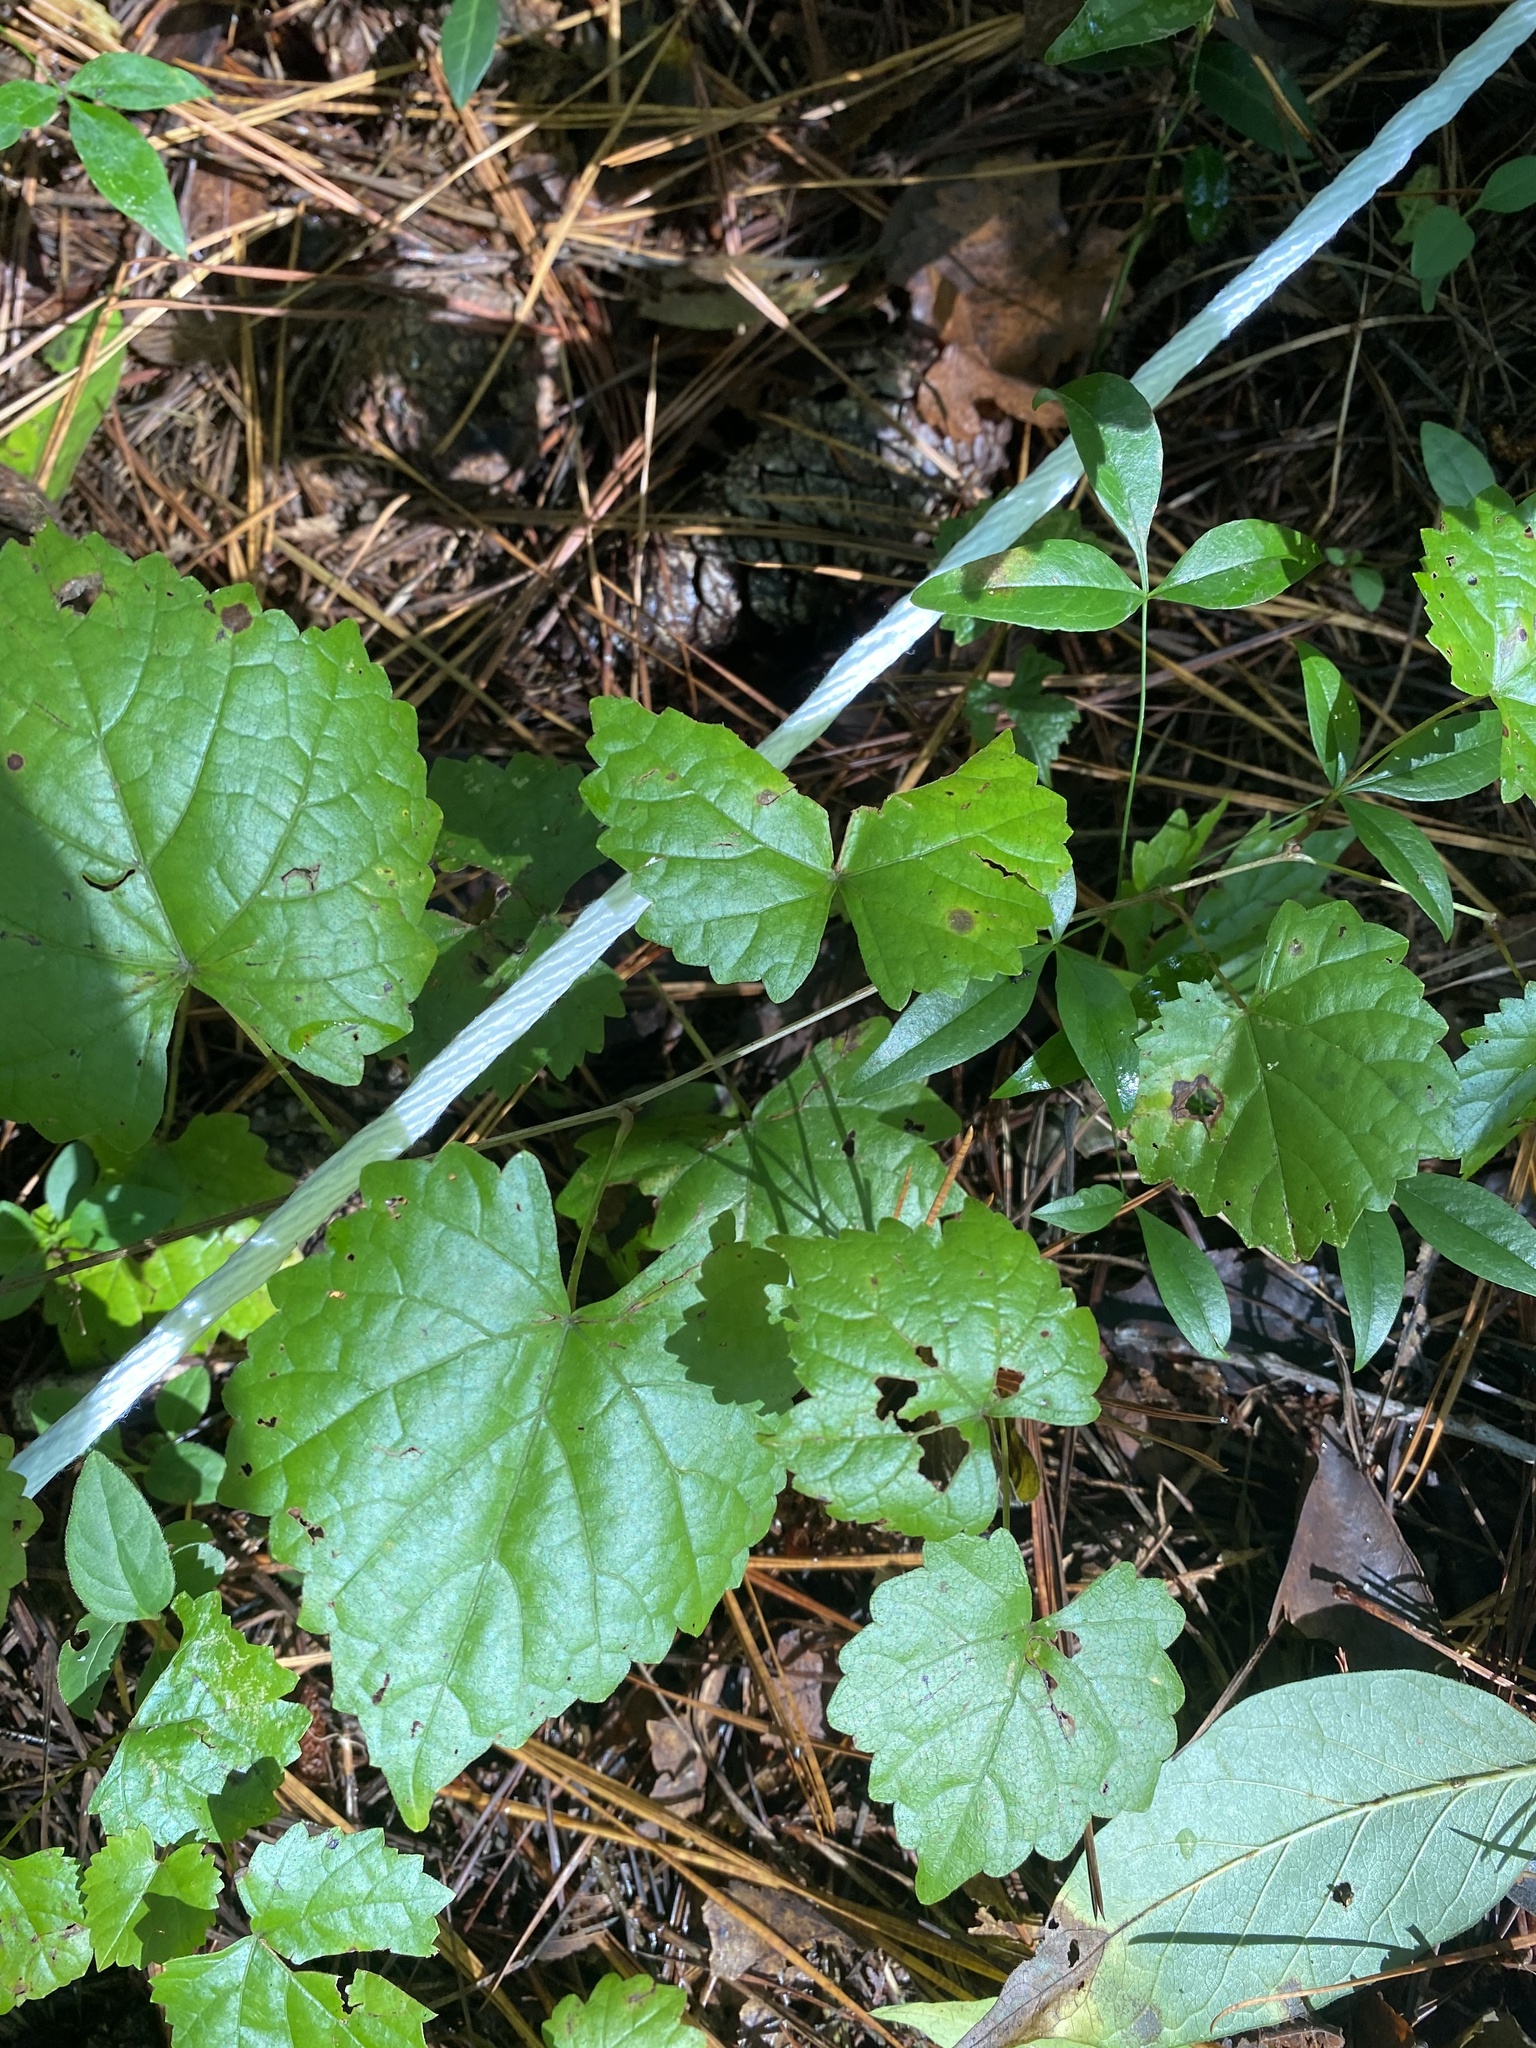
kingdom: Plantae
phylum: Tracheophyta
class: Magnoliopsida
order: Vitales
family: Vitaceae
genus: Vitis
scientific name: Vitis rotundifolia
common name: Muscadine grape
